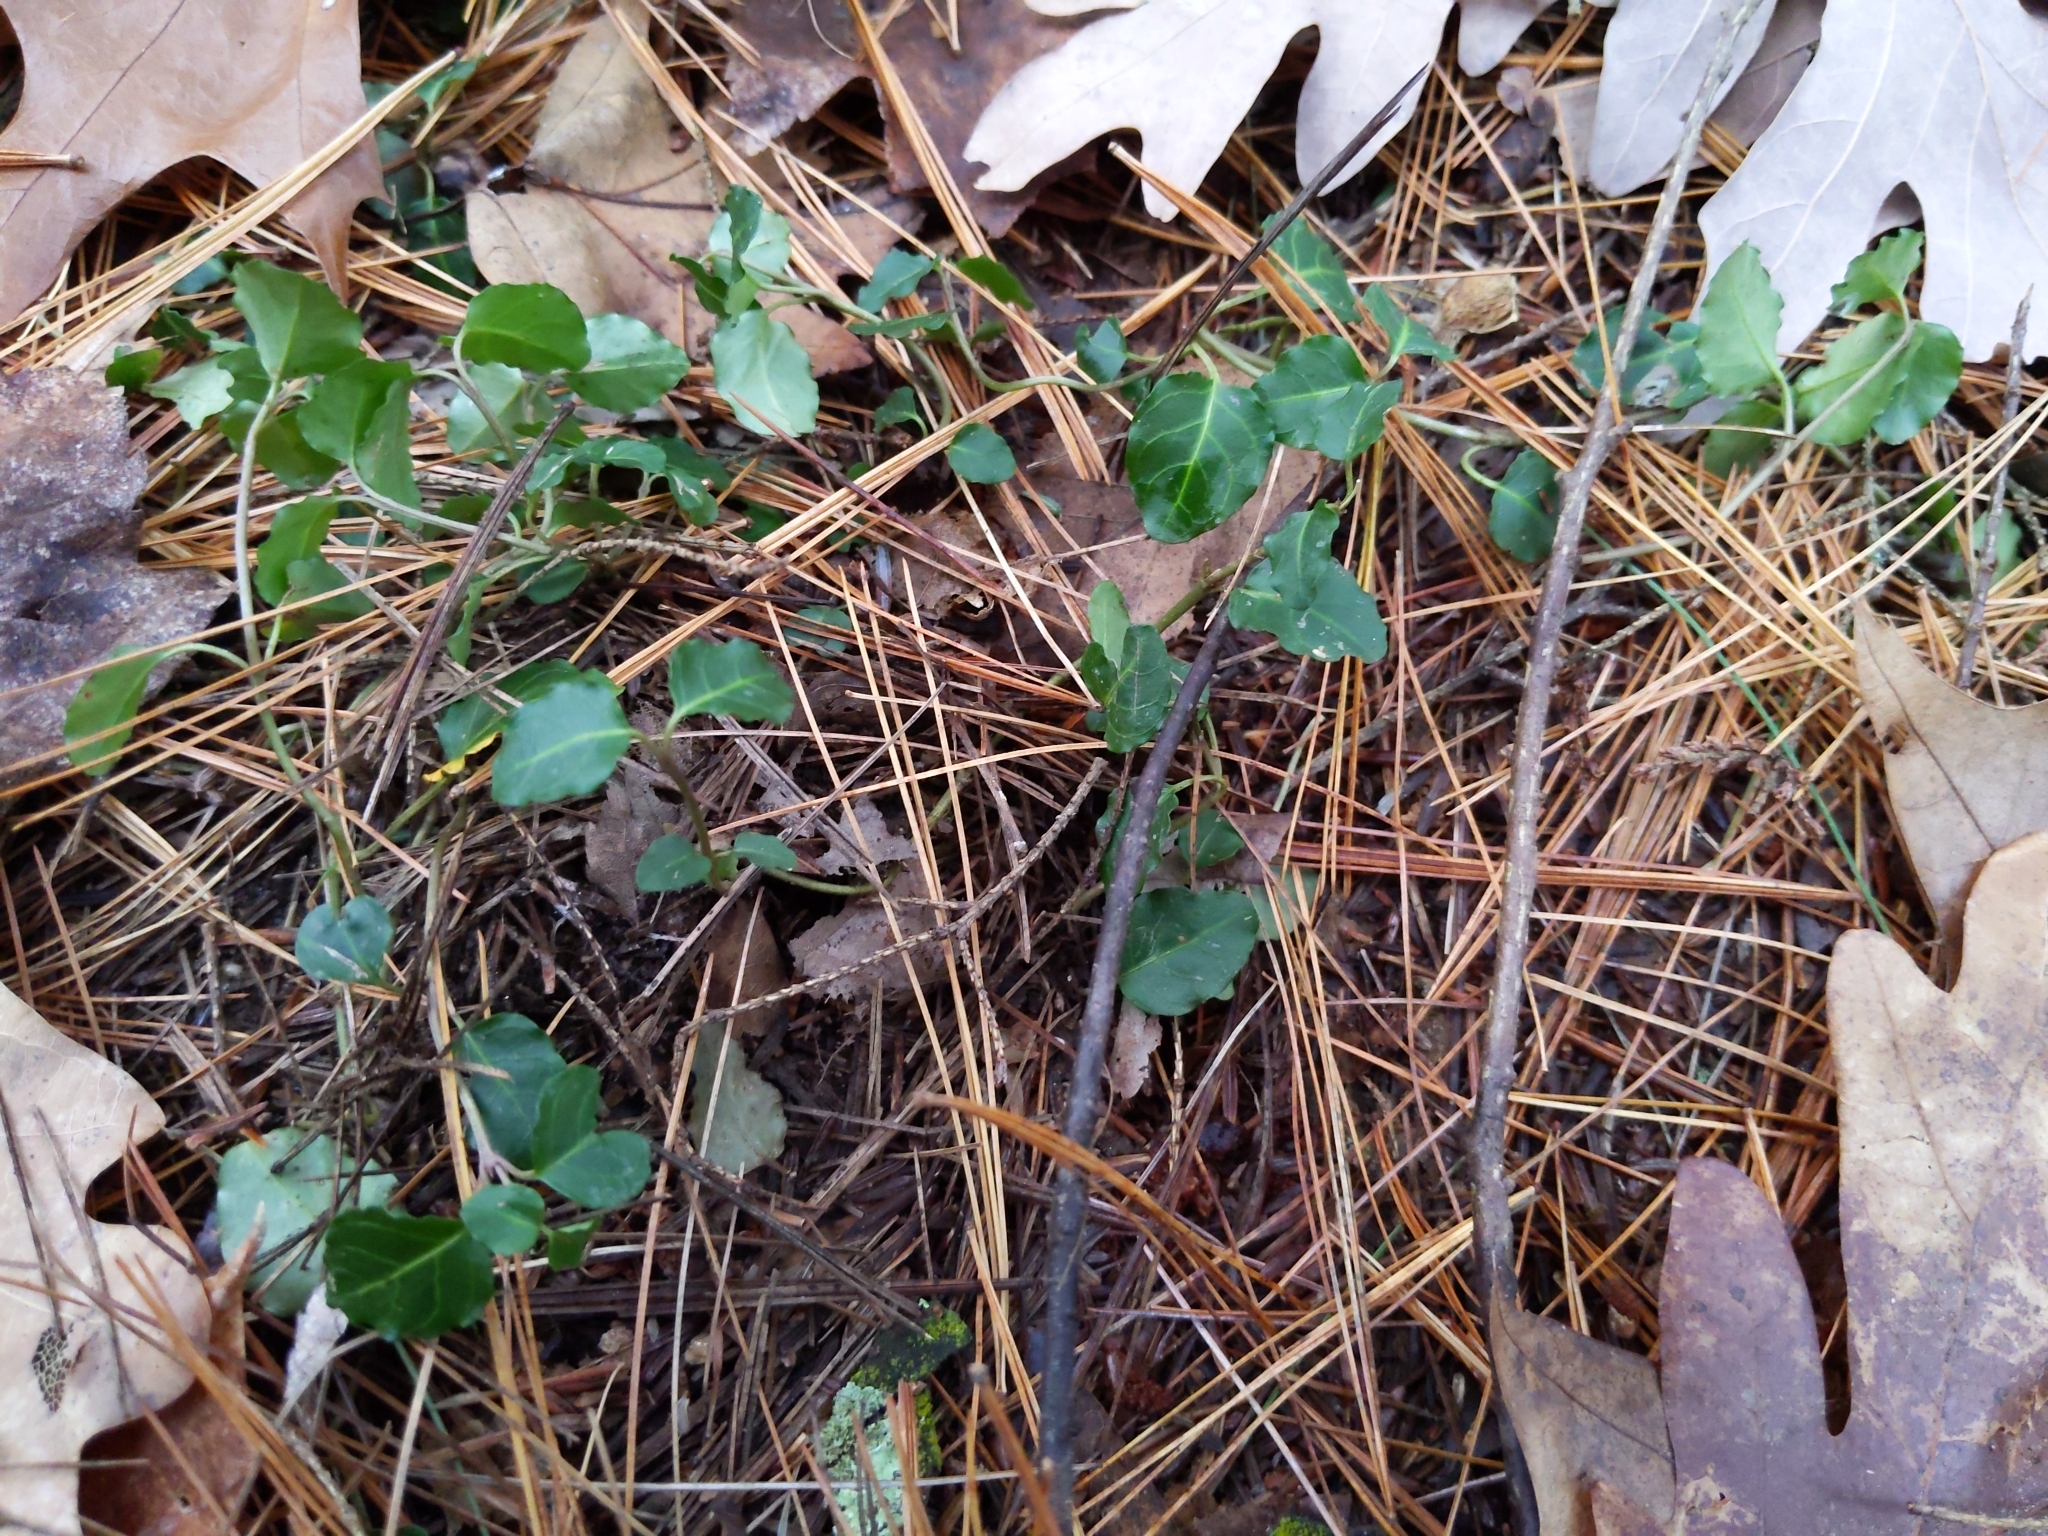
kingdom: Plantae
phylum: Tracheophyta
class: Magnoliopsida
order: Gentianales
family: Rubiaceae
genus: Mitchella
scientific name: Mitchella repens
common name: Partridge-berry
